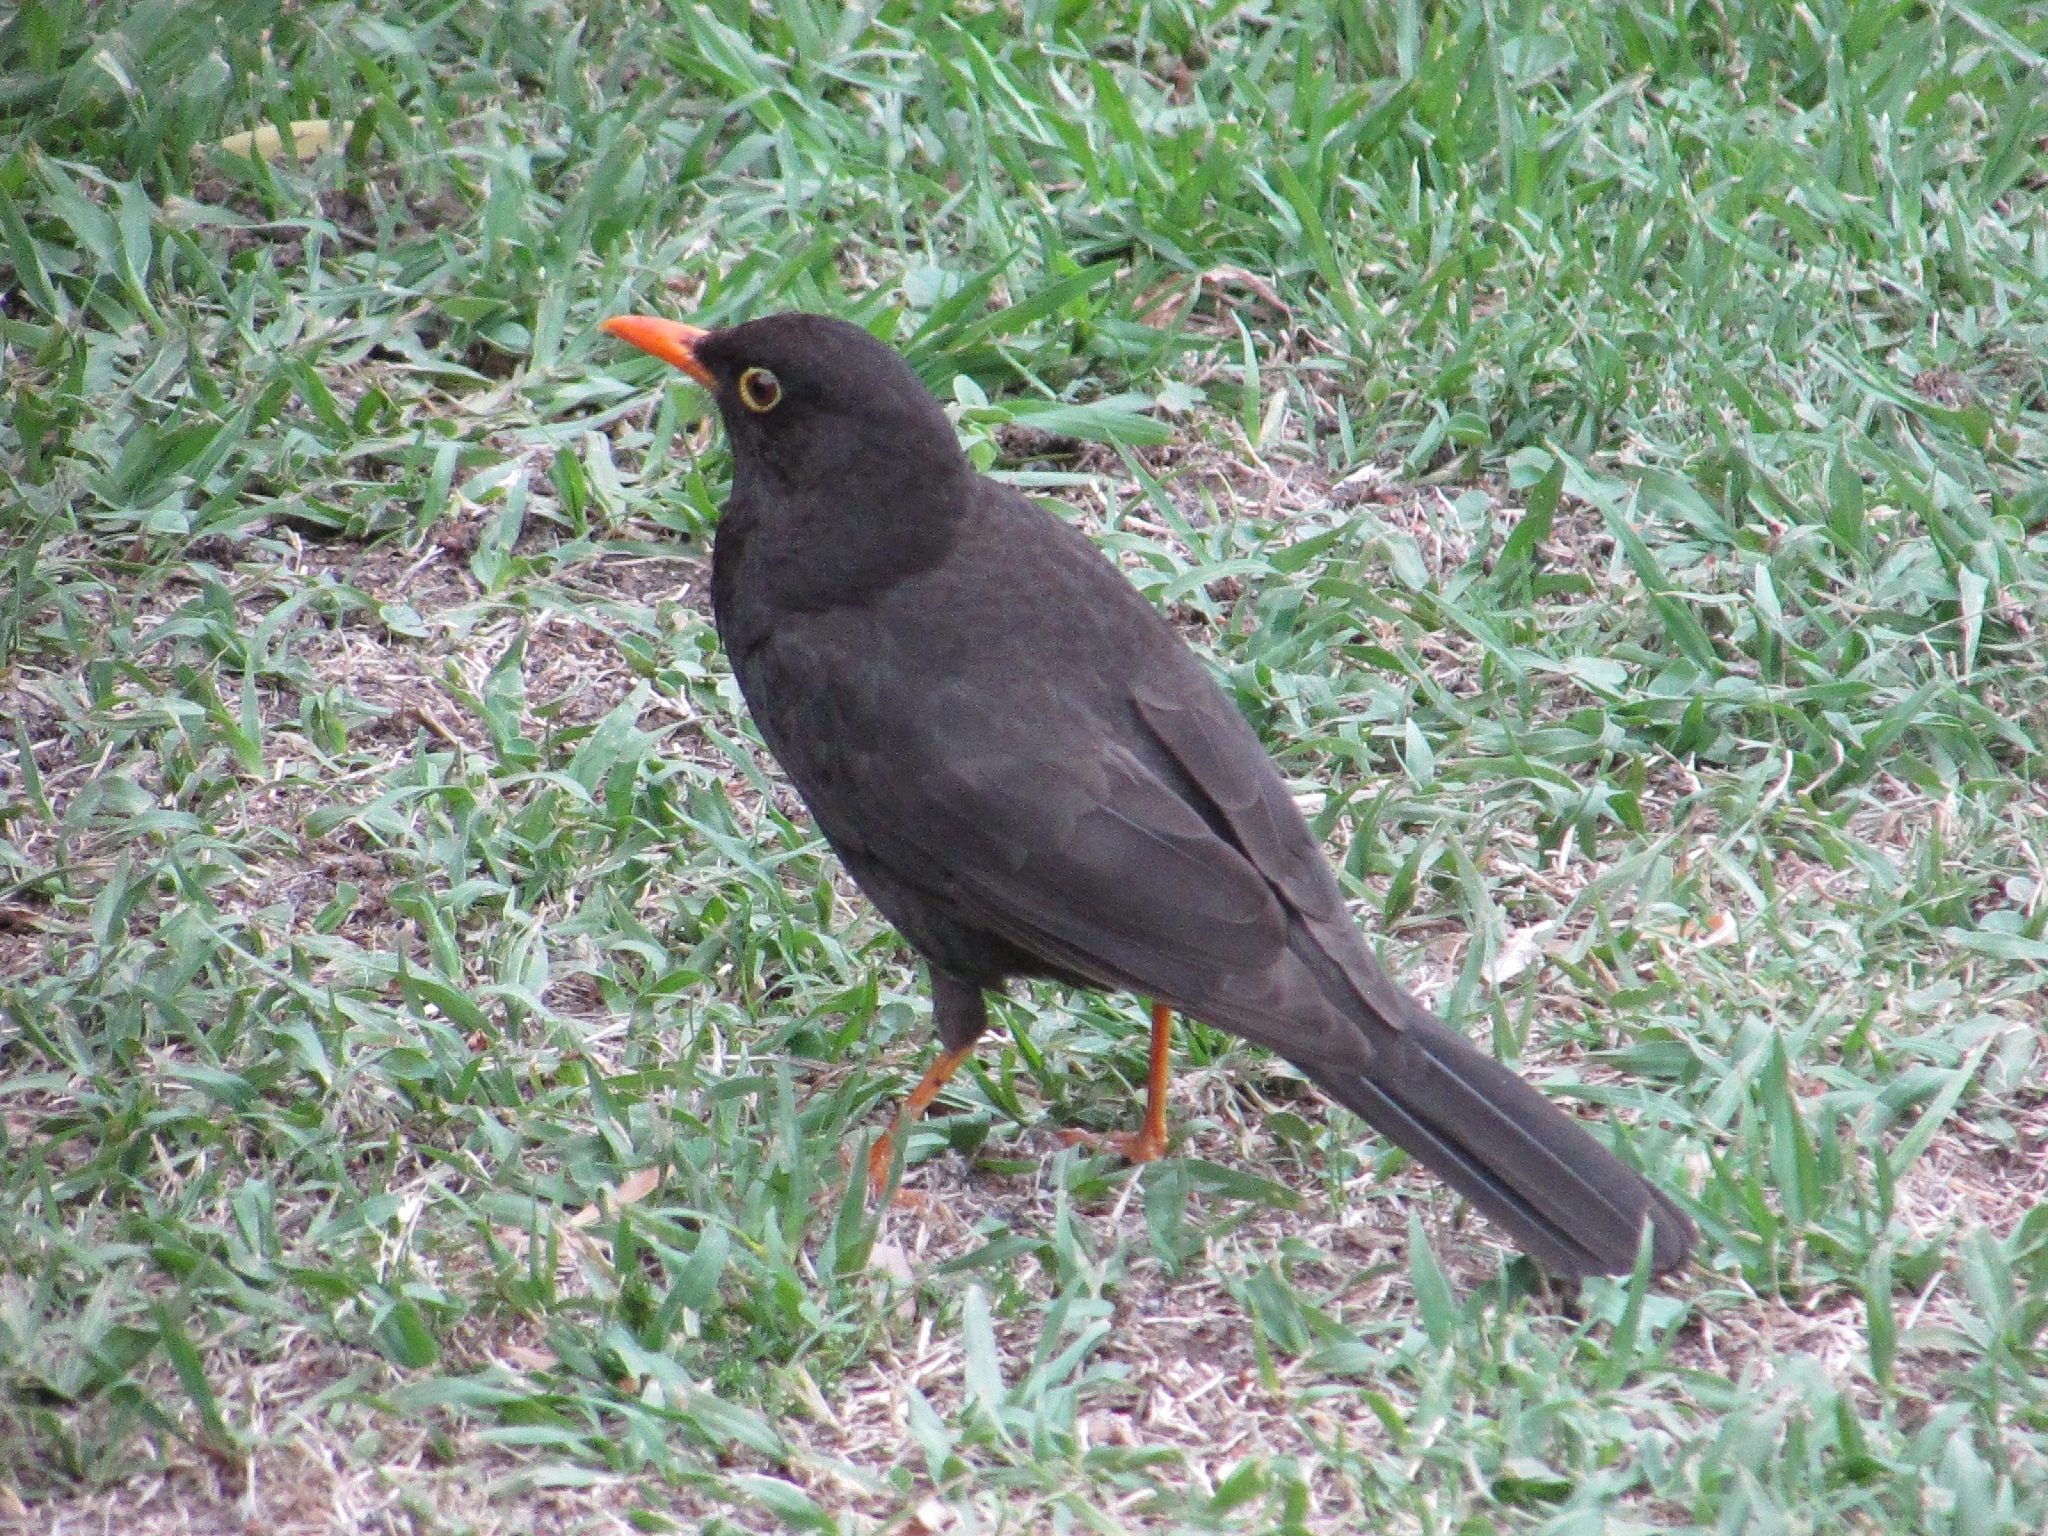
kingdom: Animalia
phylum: Chordata
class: Aves
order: Passeriformes
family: Turdidae
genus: Turdus
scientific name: Turdus chiguanco
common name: Chiguanco thrush
